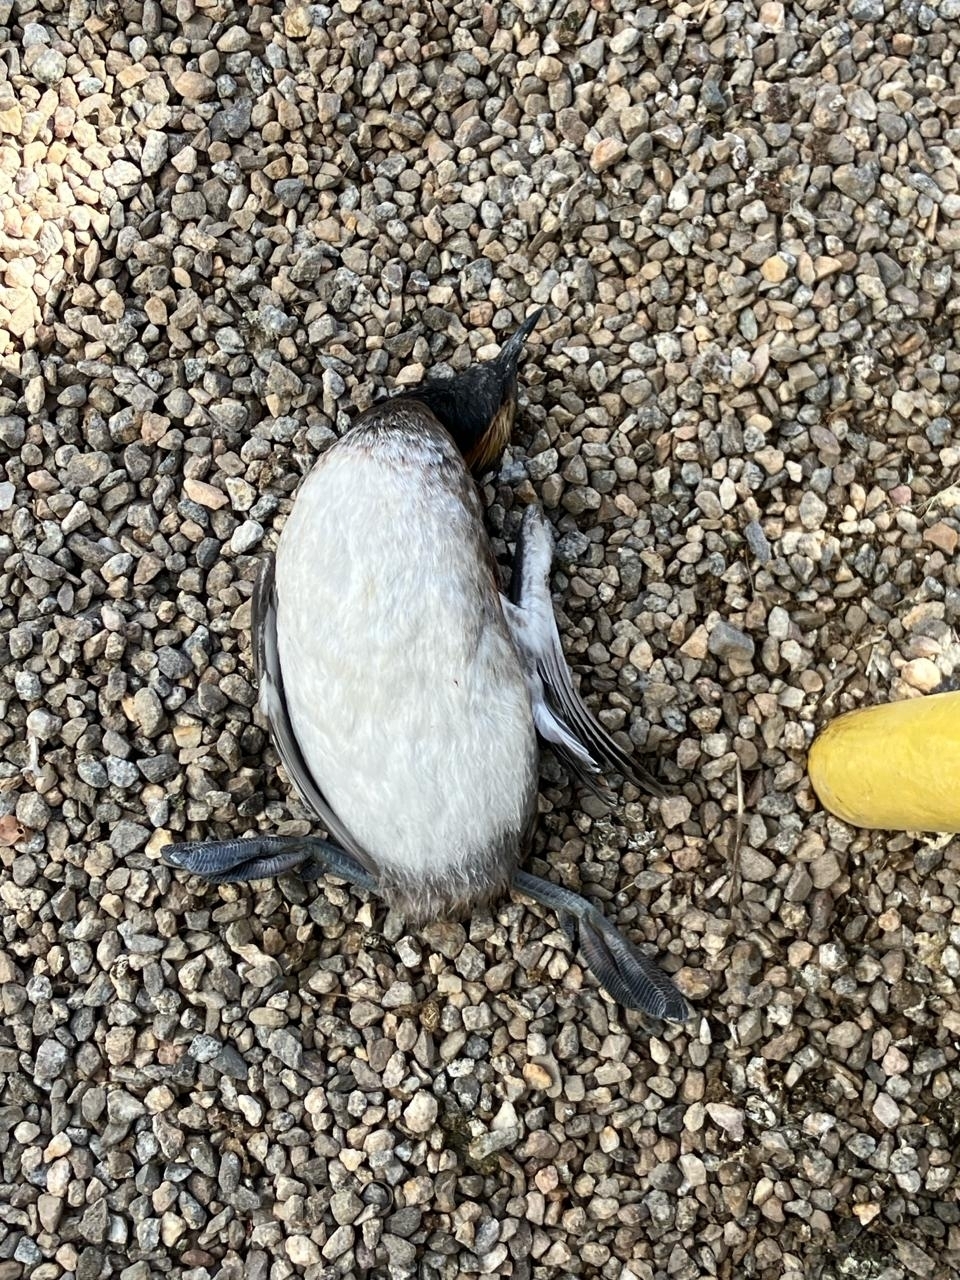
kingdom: Animalia
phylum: Chordata
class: Aves
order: Podicipediformes
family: Podicipedidae
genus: Podiceps
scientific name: Podiceps nigricollis
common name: Black-necked grebe
